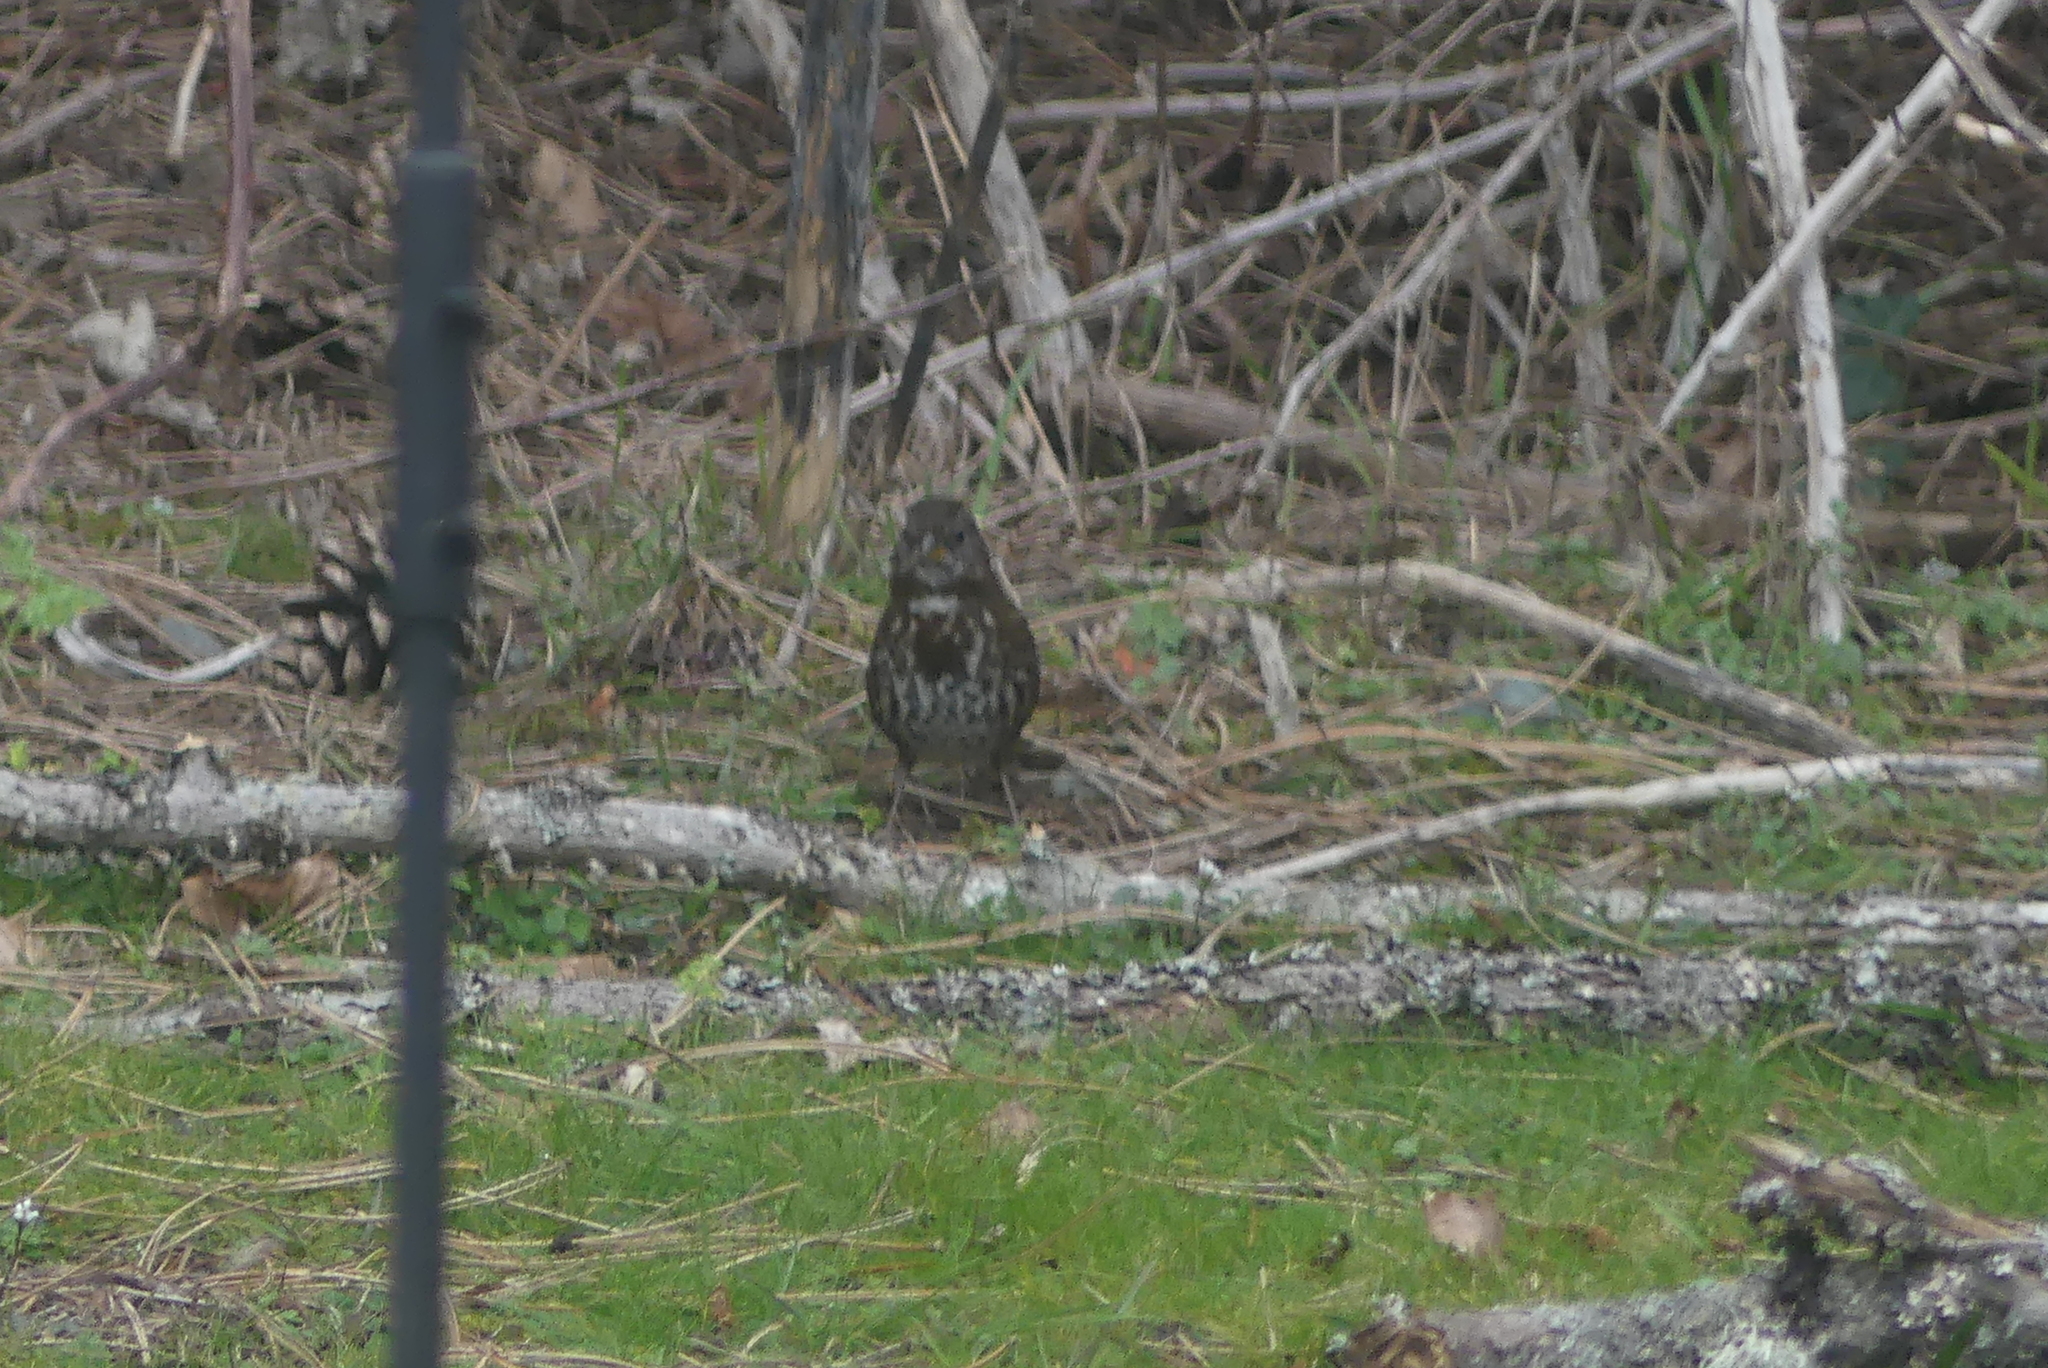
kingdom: Animalia
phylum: Chordata
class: Aves
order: Passeriformes
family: Passerellidae
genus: Passerella
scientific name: Passerella iliaca
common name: Fox sparrow
